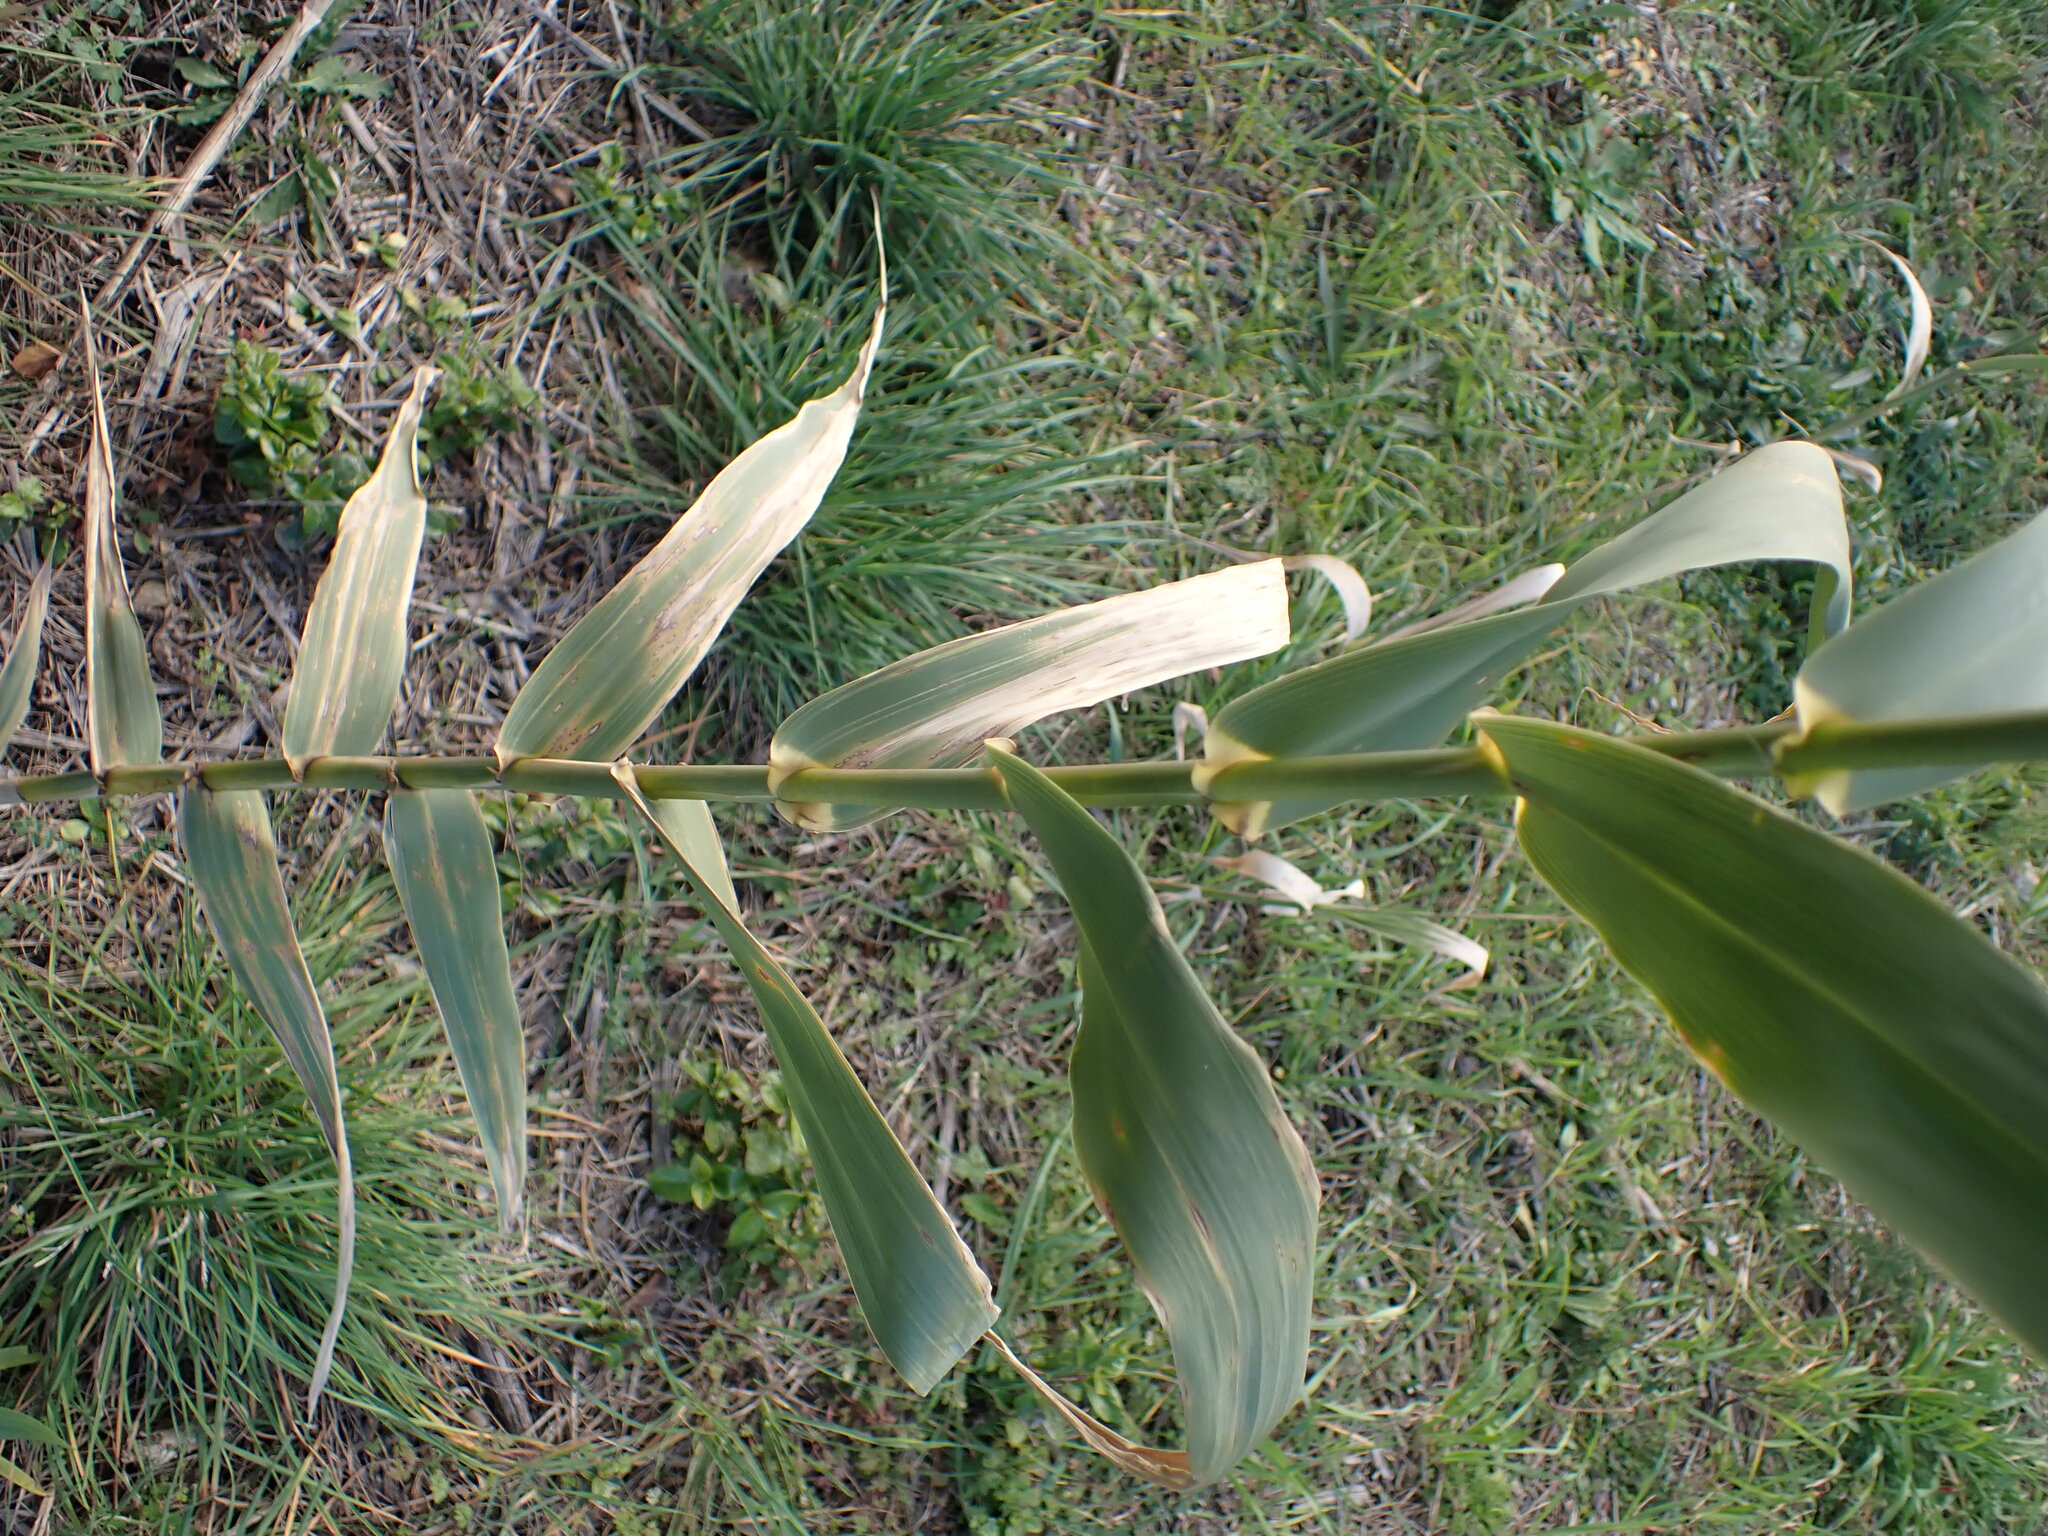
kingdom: Plantae
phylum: Tracheophyta
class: Liliopsida
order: Poales
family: Poaceae
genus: Arundo
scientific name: Arundo donax
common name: Giant reed
